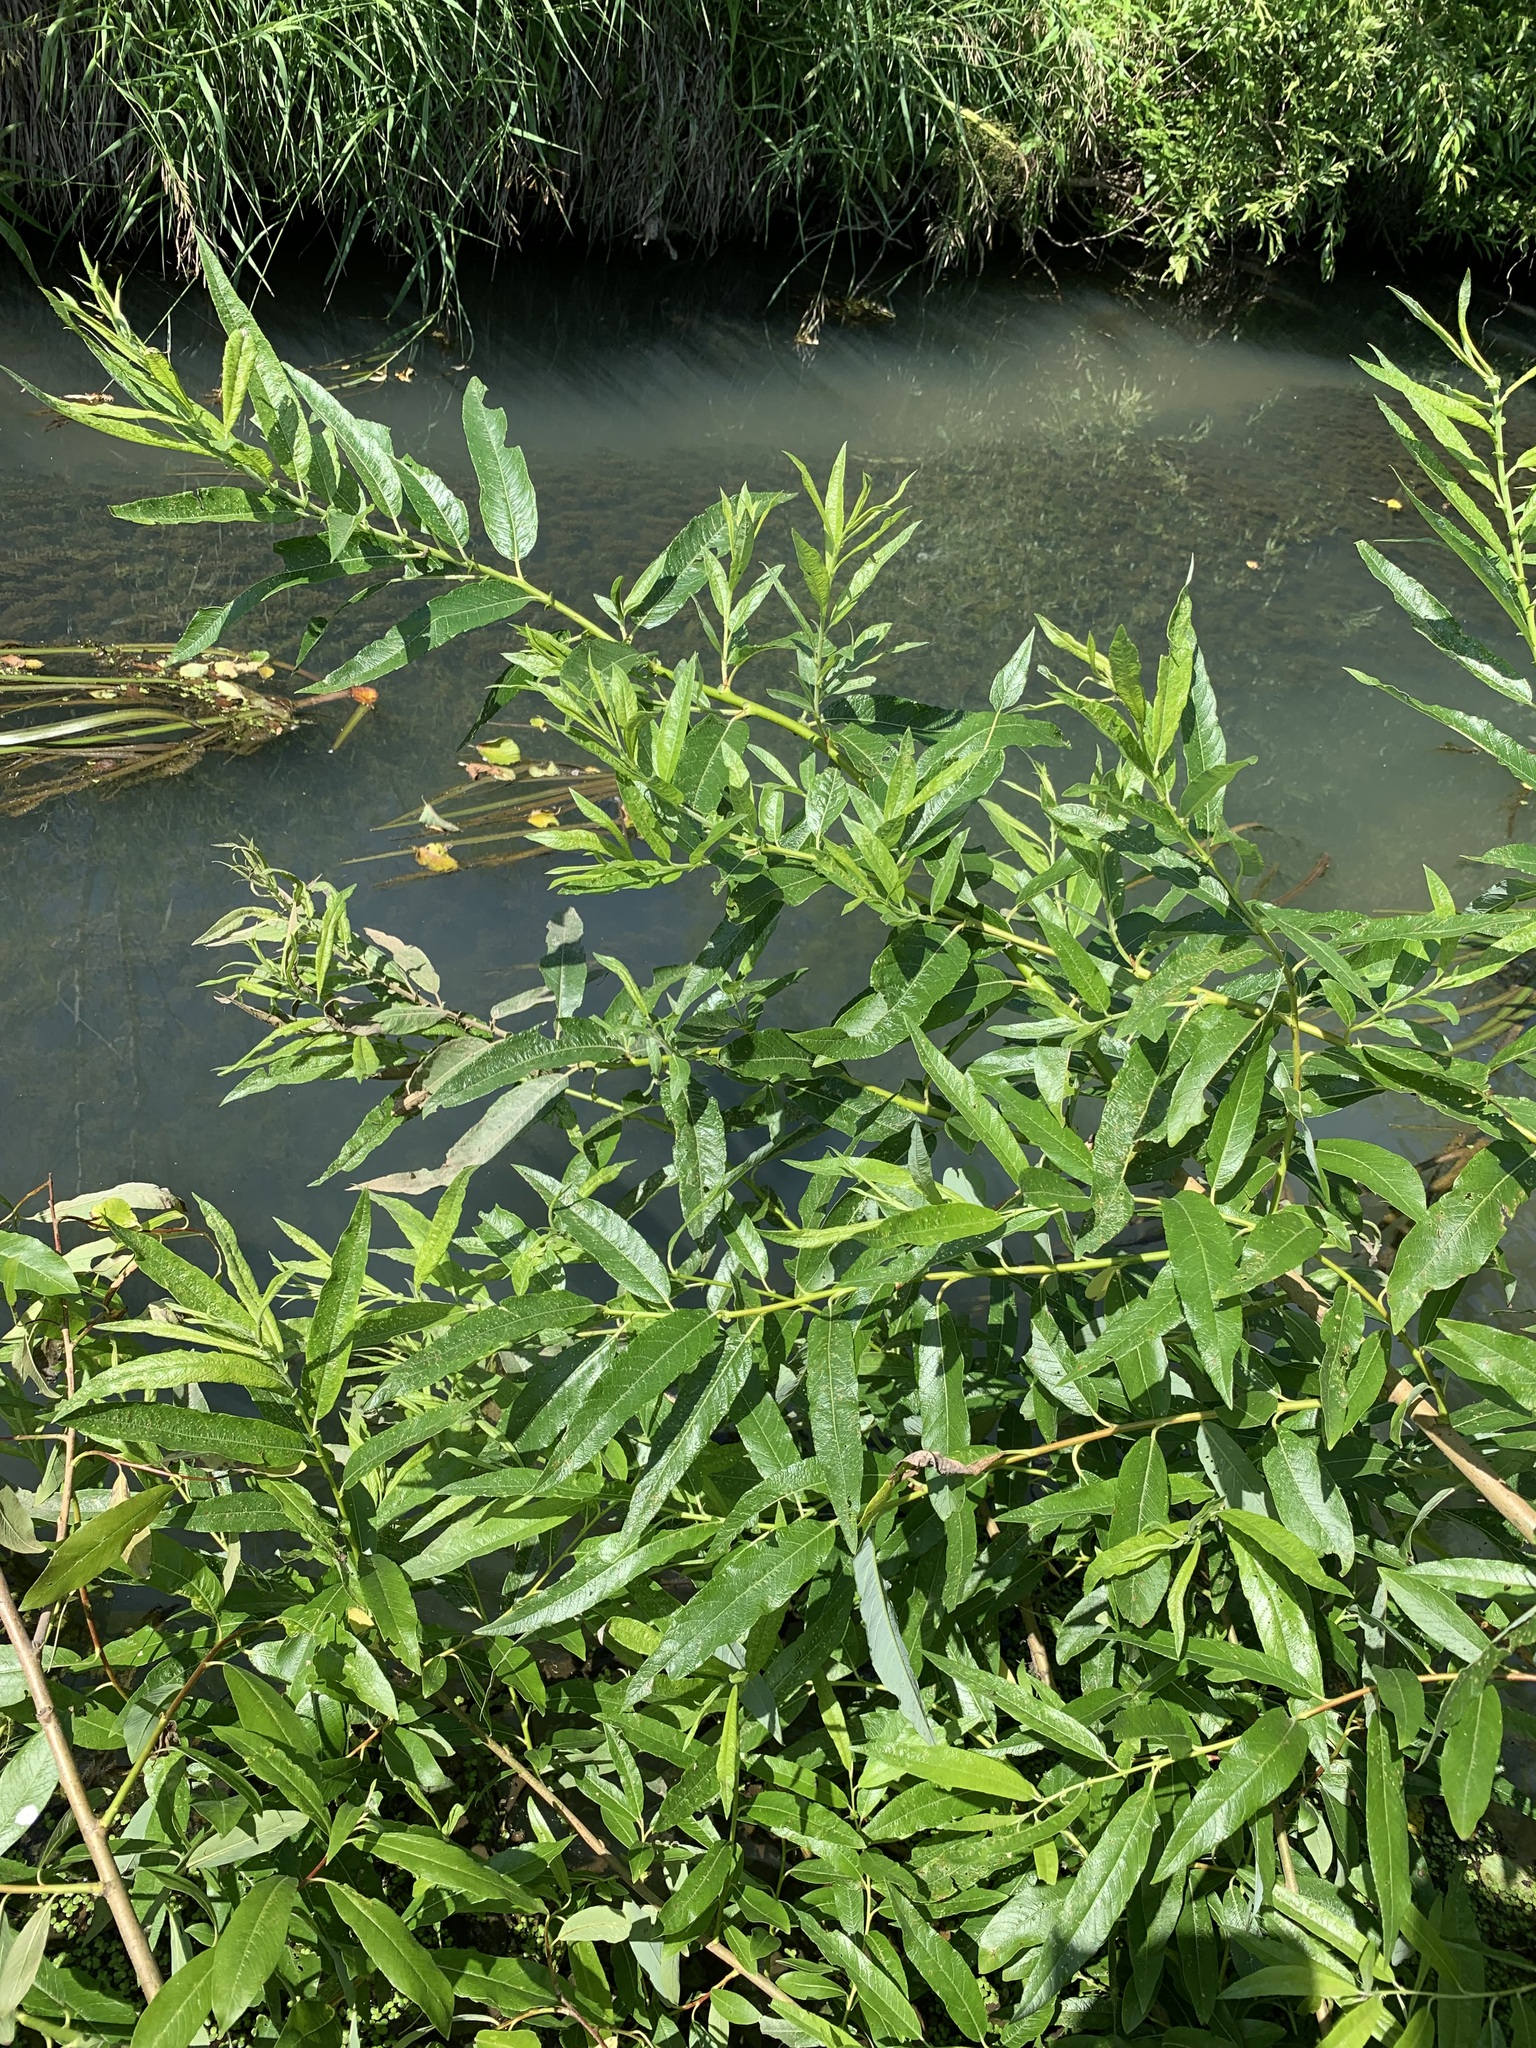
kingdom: Plantae
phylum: Tracheophyta
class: Magnoliopsida
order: Malpighiales
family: Salicaceae
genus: Salix
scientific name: Salix gmelinii
